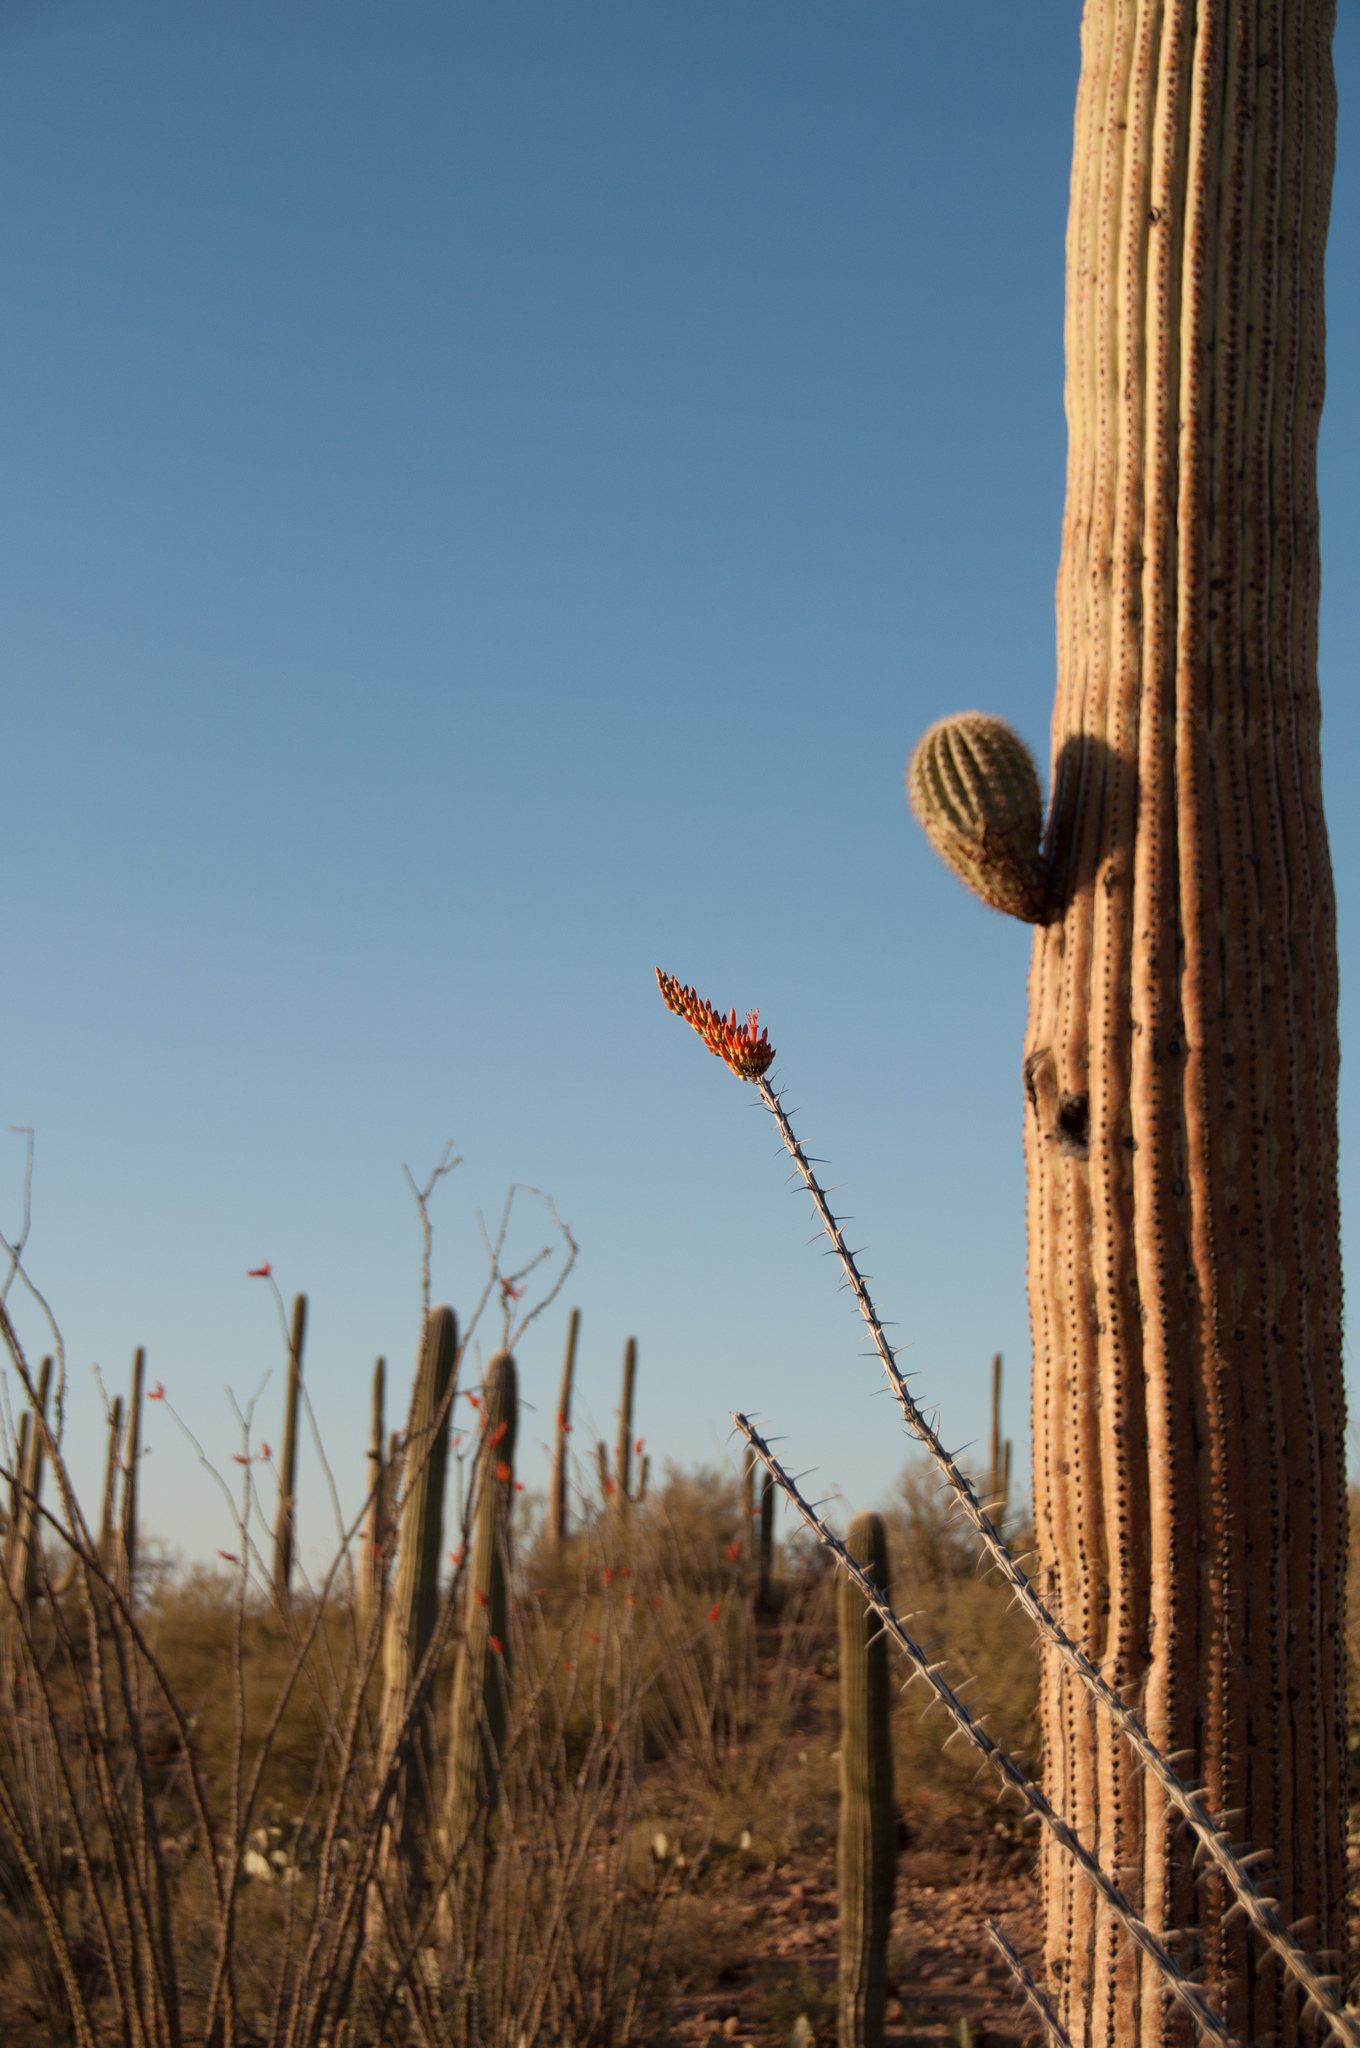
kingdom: Plantae
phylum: Tracheophyta
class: Magnoliopsida
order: Ericales
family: Fouquieriaceae
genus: Fouquieria
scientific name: Fouquieria splendens
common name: Vine-cactus
